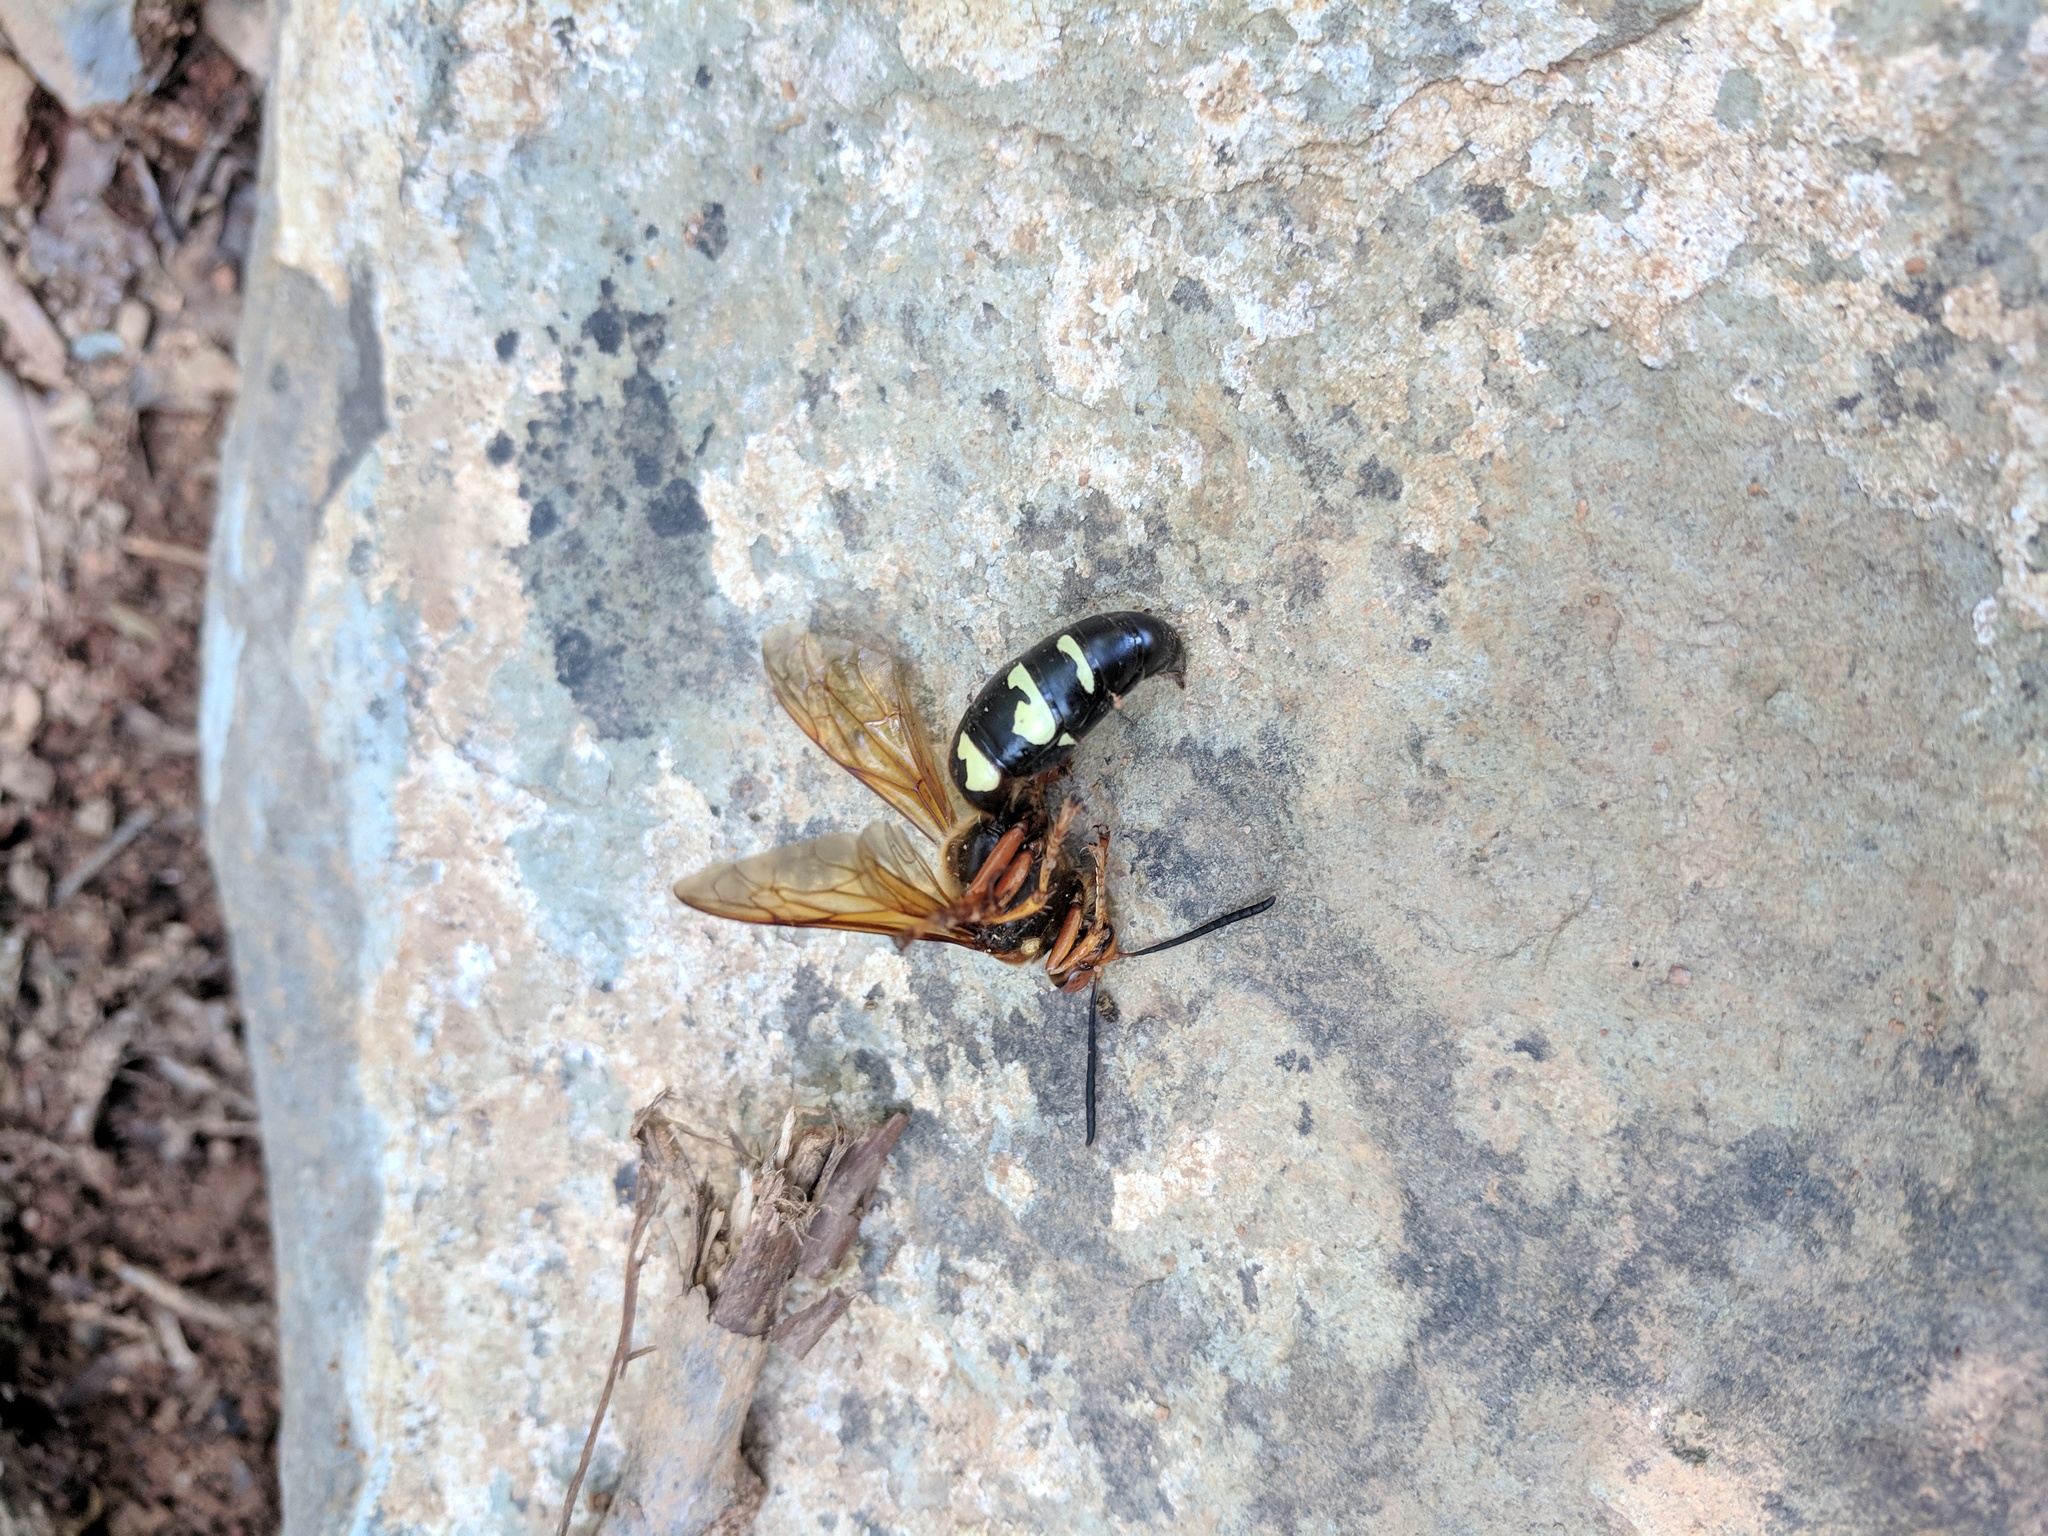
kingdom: Animalia
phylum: Arthropoda
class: Insecta
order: Hymenoptera
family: Crabronidae
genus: Sphecius
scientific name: Sphecius speciosus
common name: Cicada killer
